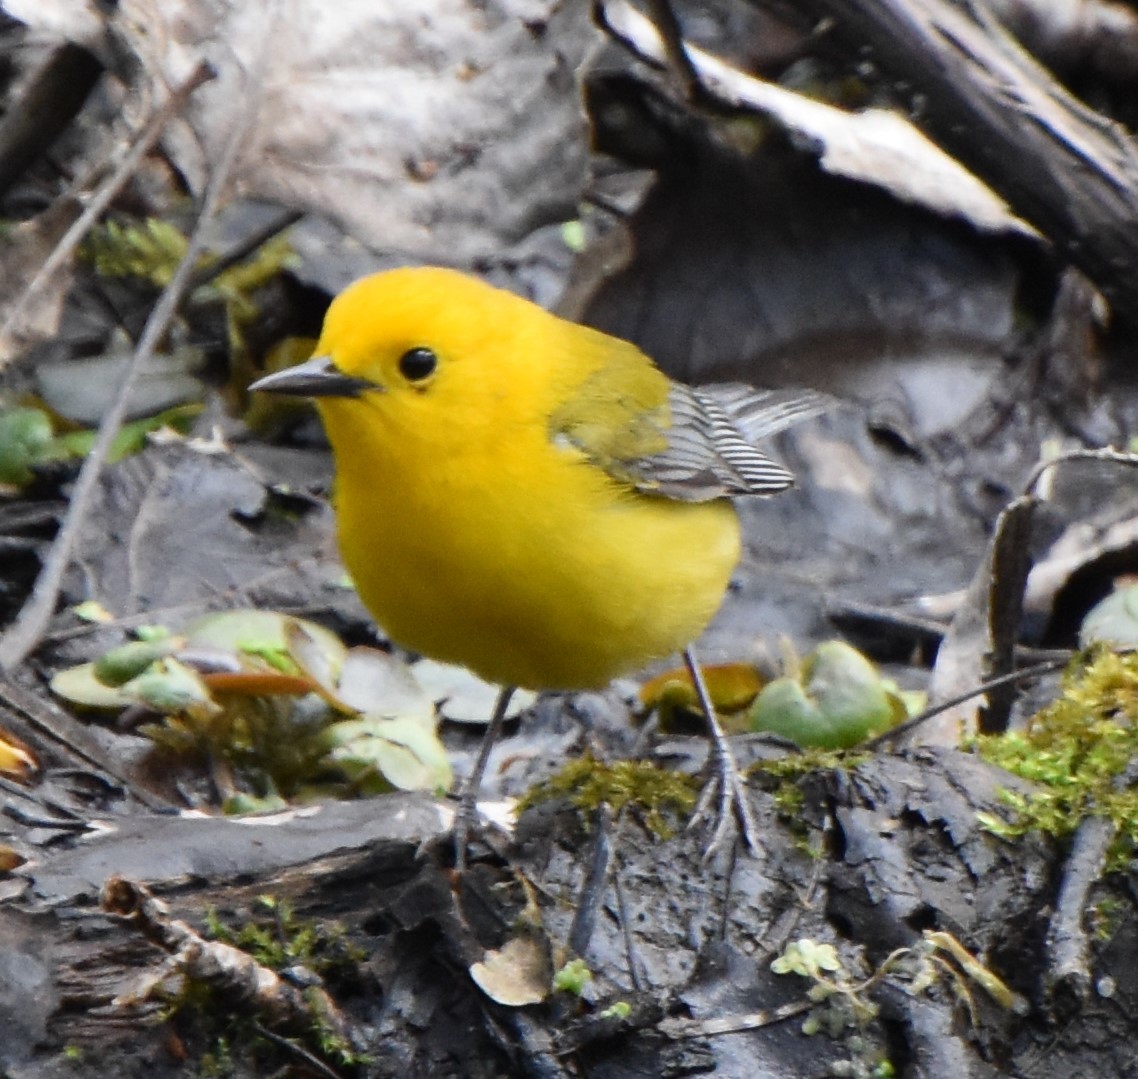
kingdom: Animalia
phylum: Chordata
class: Aves
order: Passeriformes
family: Parulidae
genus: Protonotaria
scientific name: Protonotaria citrea
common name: Prothonotary warbler
